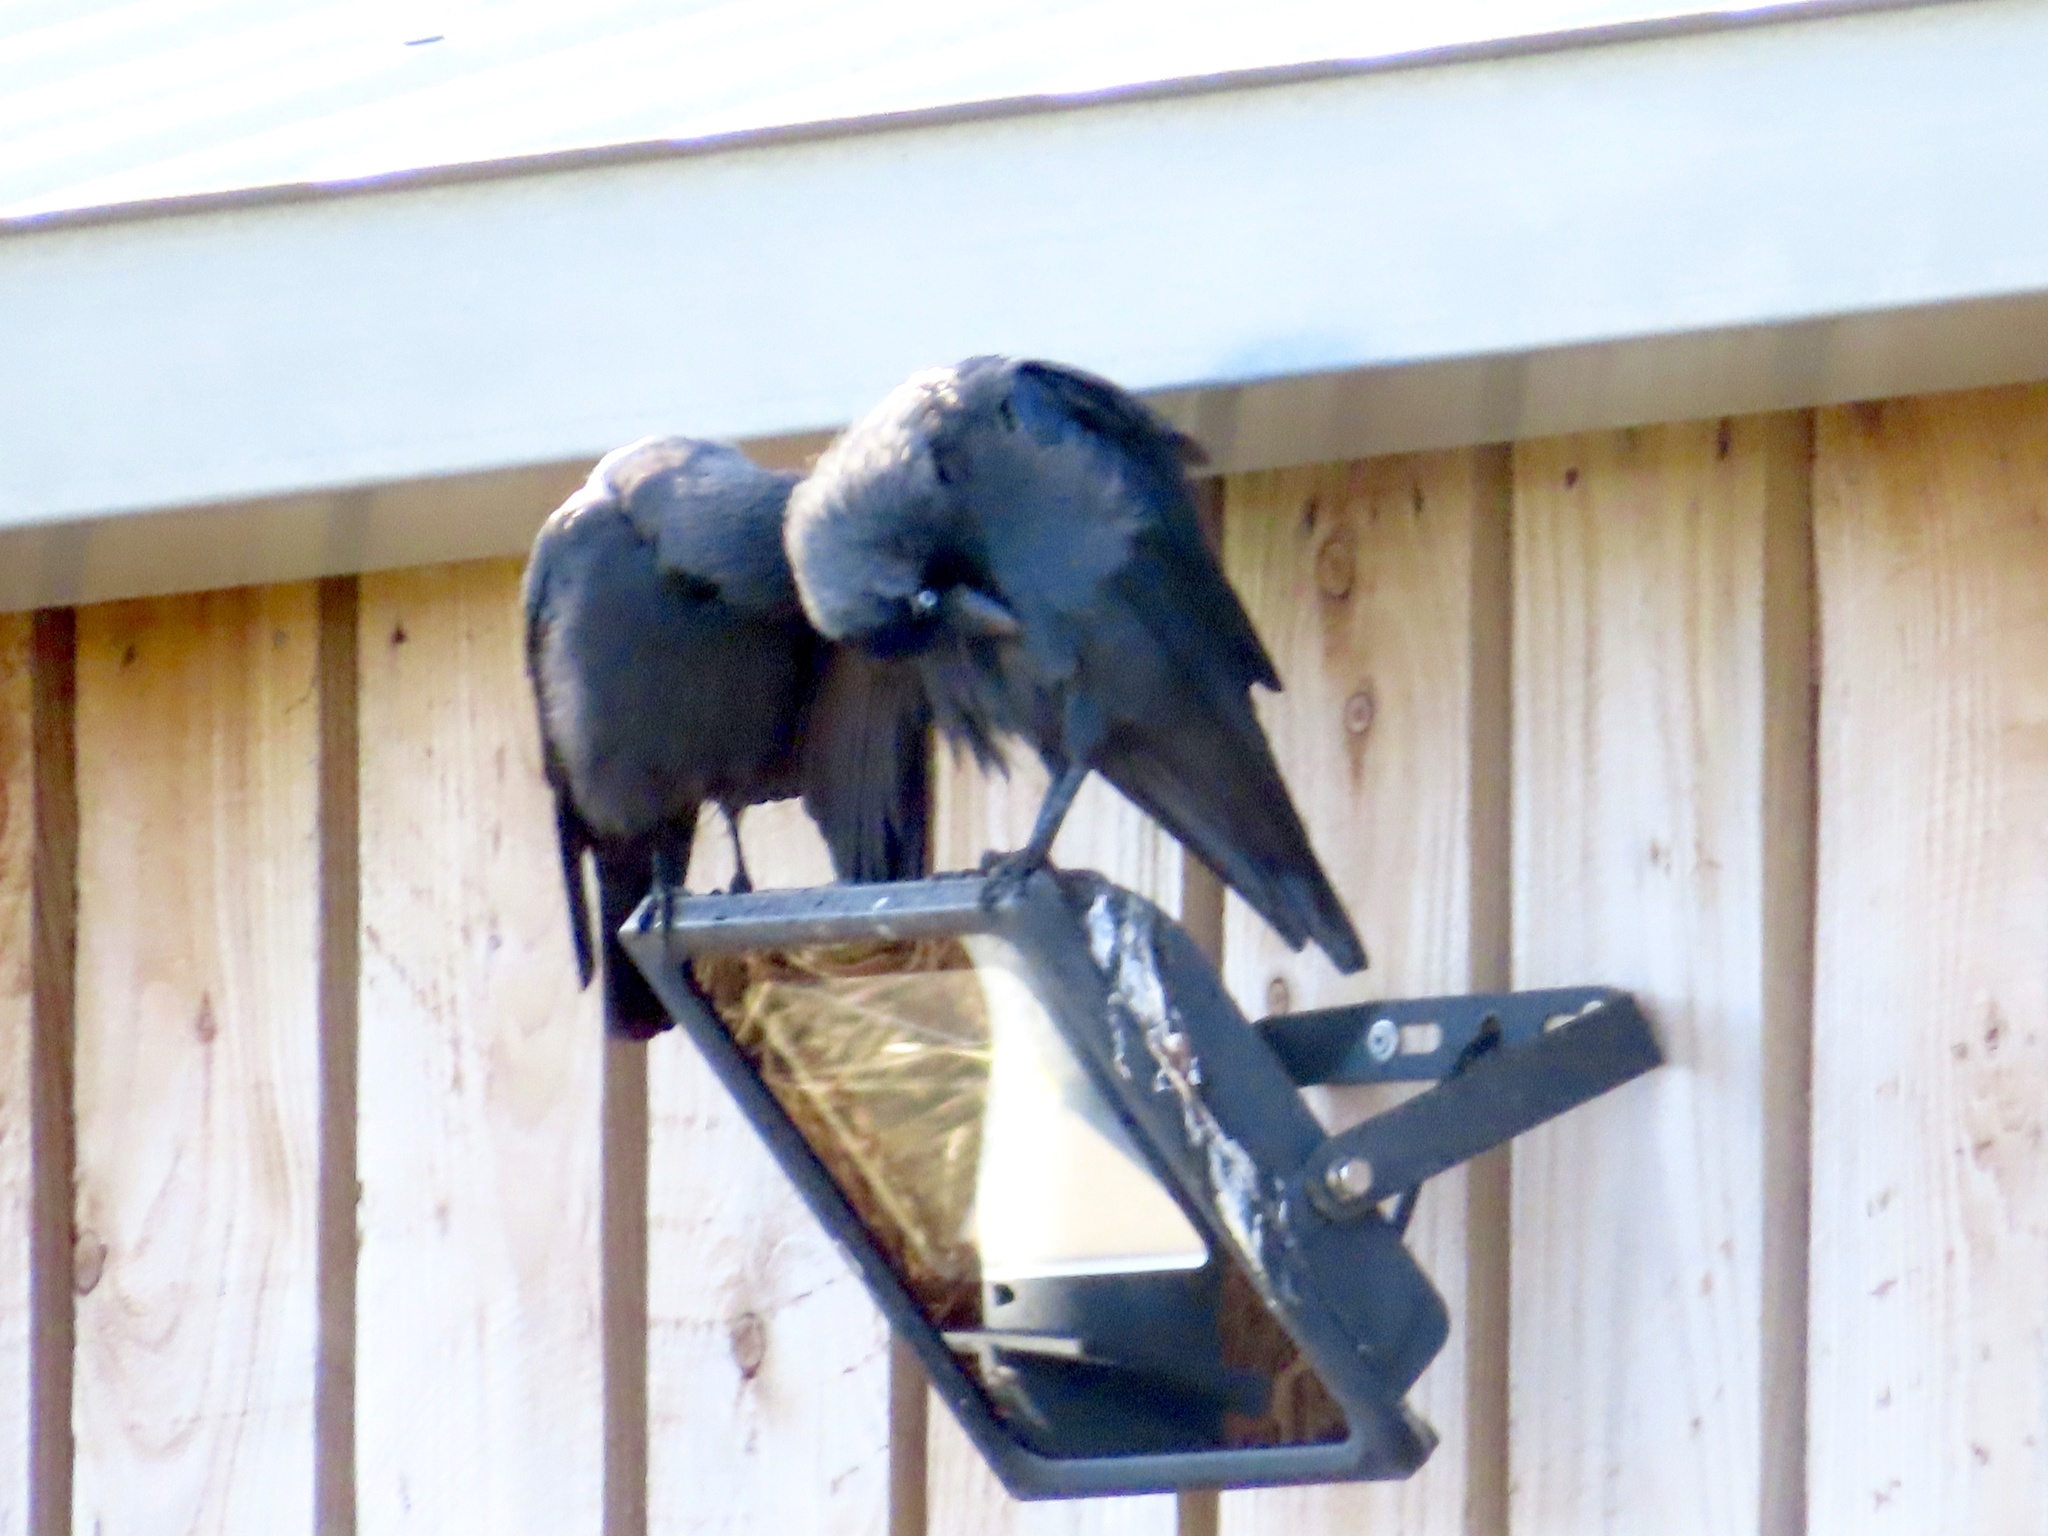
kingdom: Animalia
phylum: Chordata
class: Aves
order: Passeriformes
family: Corvidae
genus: Coloeus
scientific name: Coloeus monedula
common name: Western jackdaw
